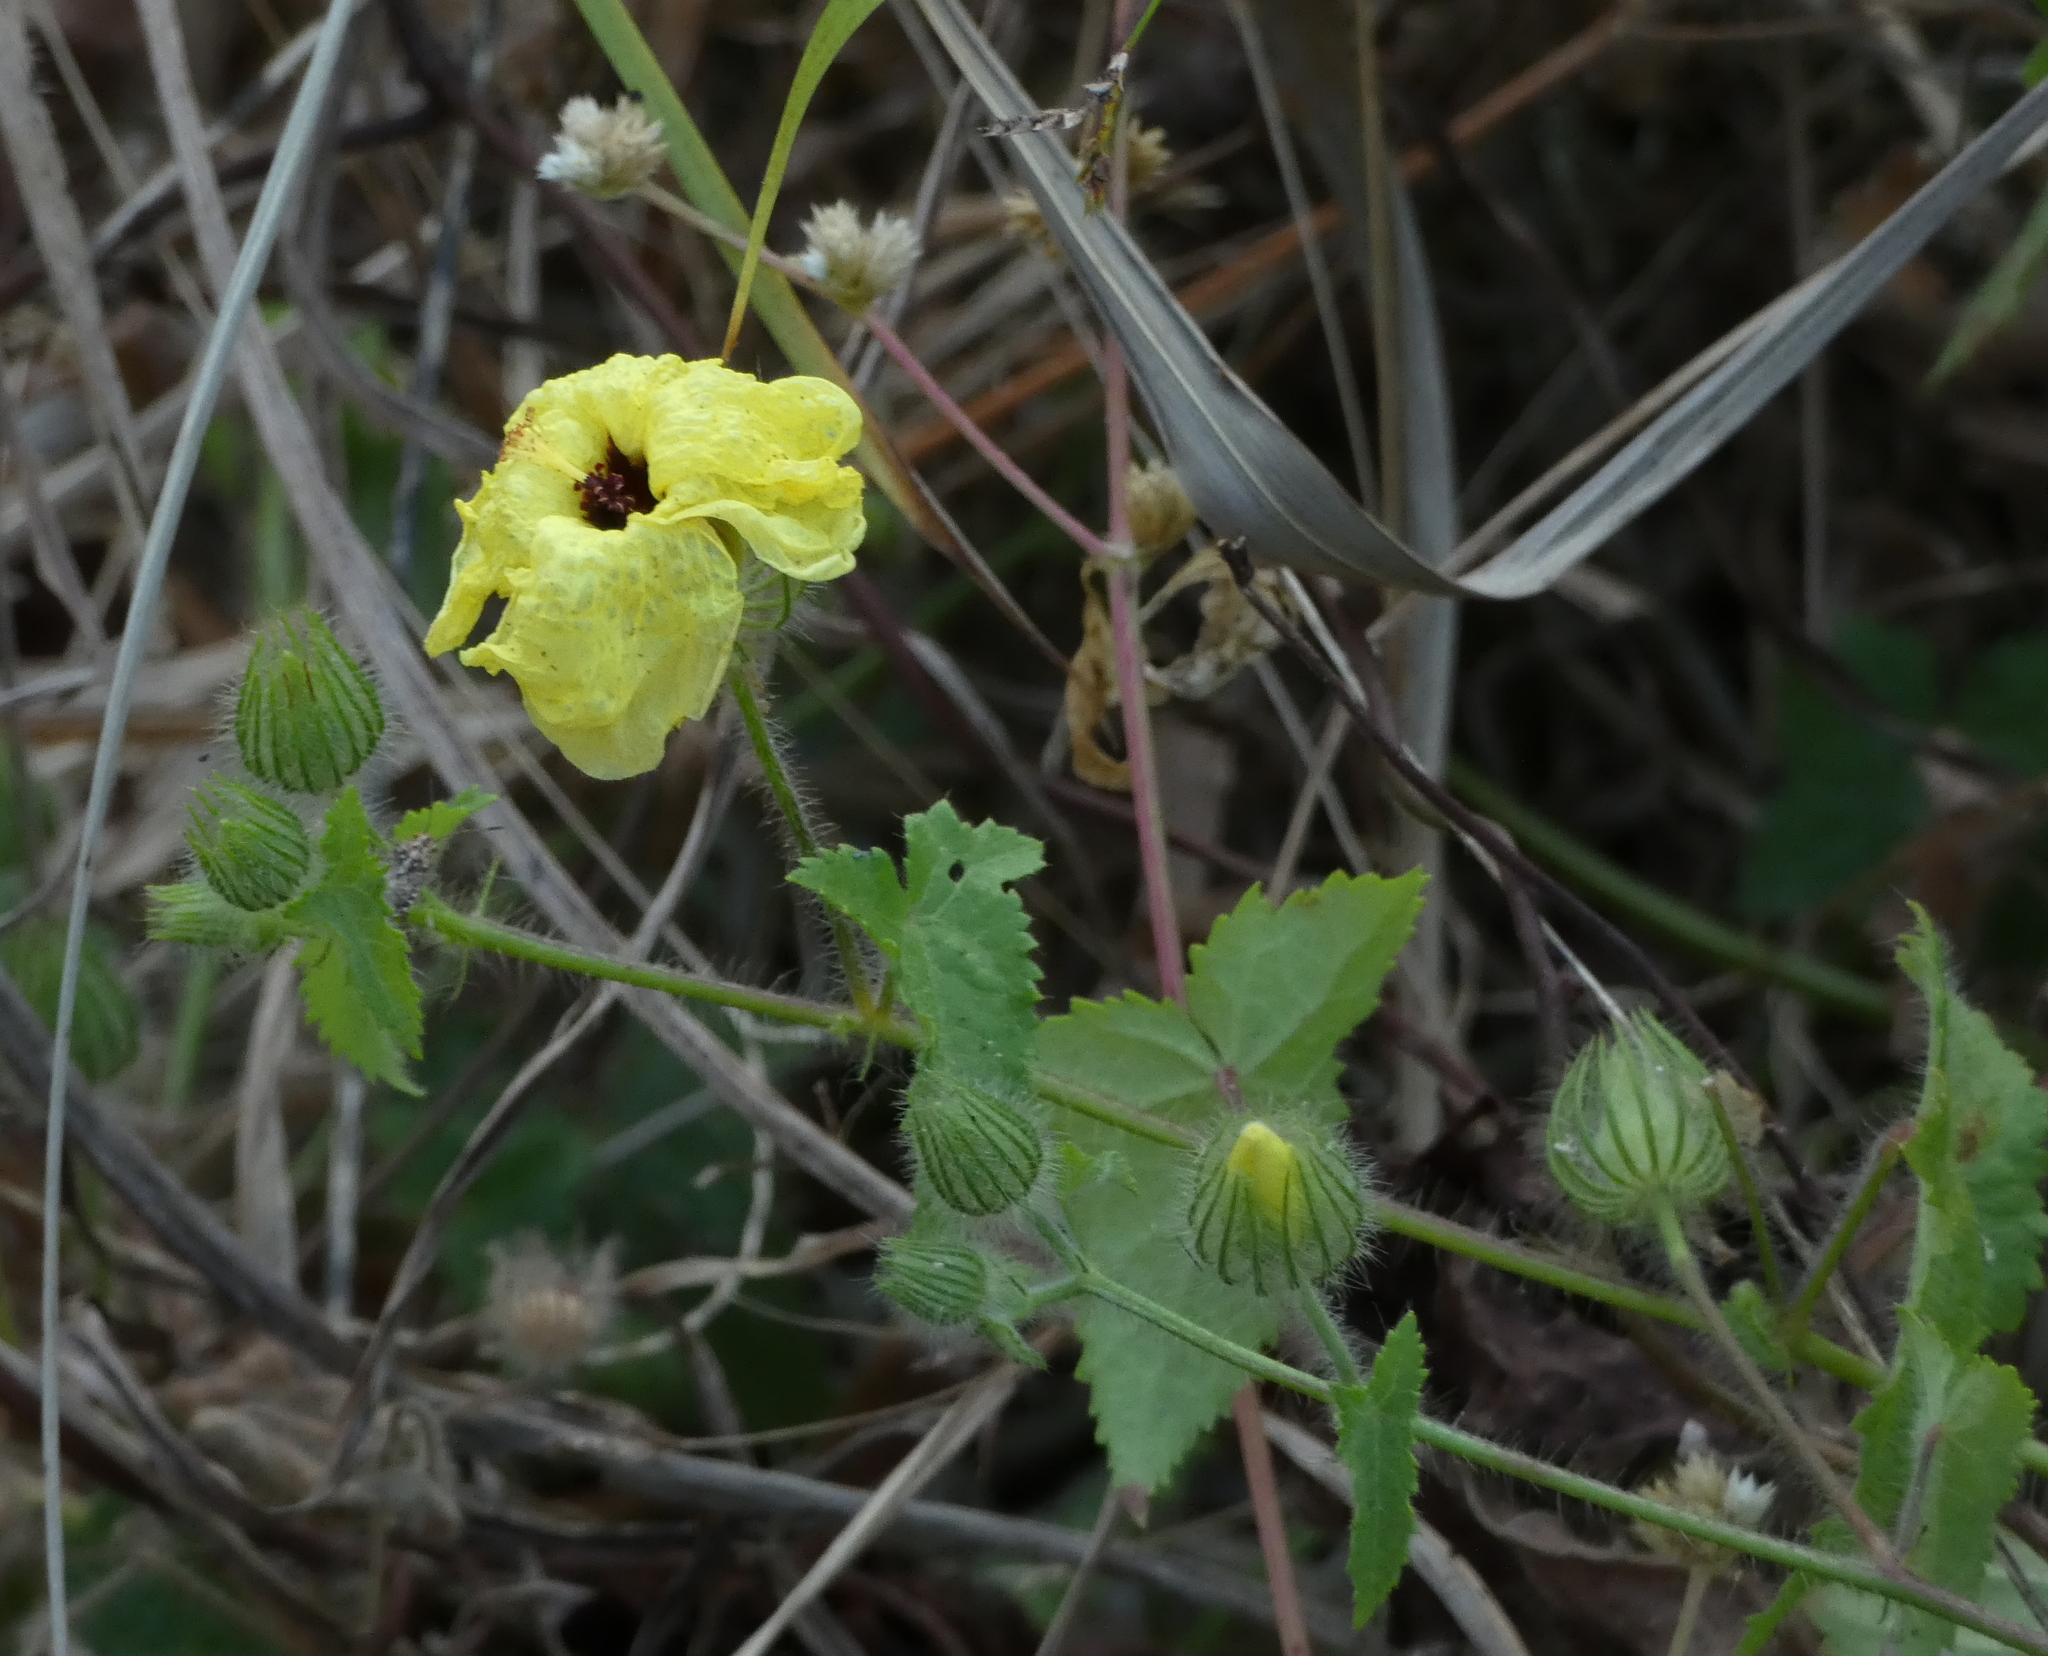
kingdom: Plantae
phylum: Tracheophyta
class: Magnoliopsida
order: Malvales
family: Malvaceae
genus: Pavonia
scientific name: Pavonia cancellata
